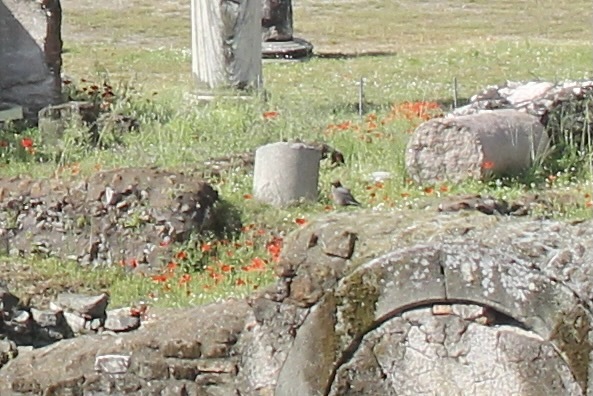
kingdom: Animalia
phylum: Chordata
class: Aves
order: Passeriformes
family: Muscicapidae
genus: Monticola
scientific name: Monticola solitarius
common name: Blue rock thrush
